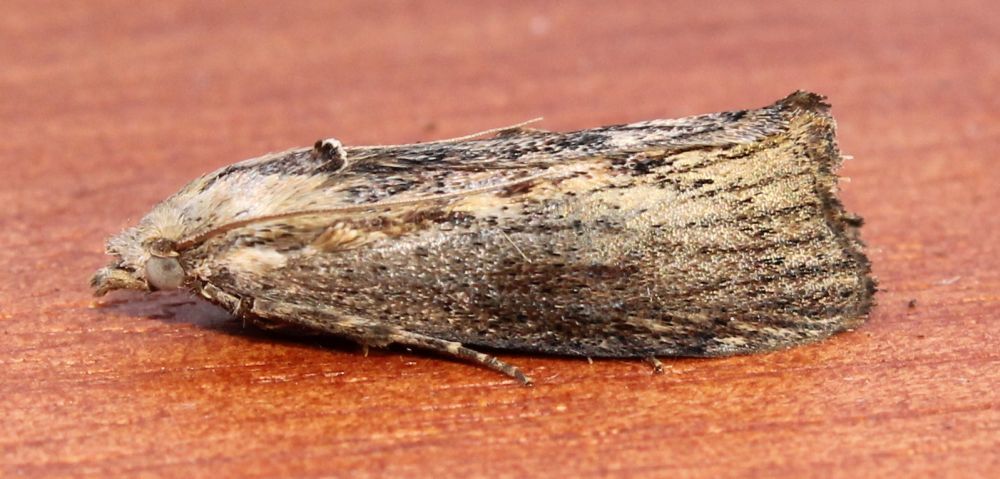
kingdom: Animalia
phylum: Arthropoda
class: Insecta
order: Lepidoptera
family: Pyralidae
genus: Galleria
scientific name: Galleria mellonella
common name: Greater wax moth
